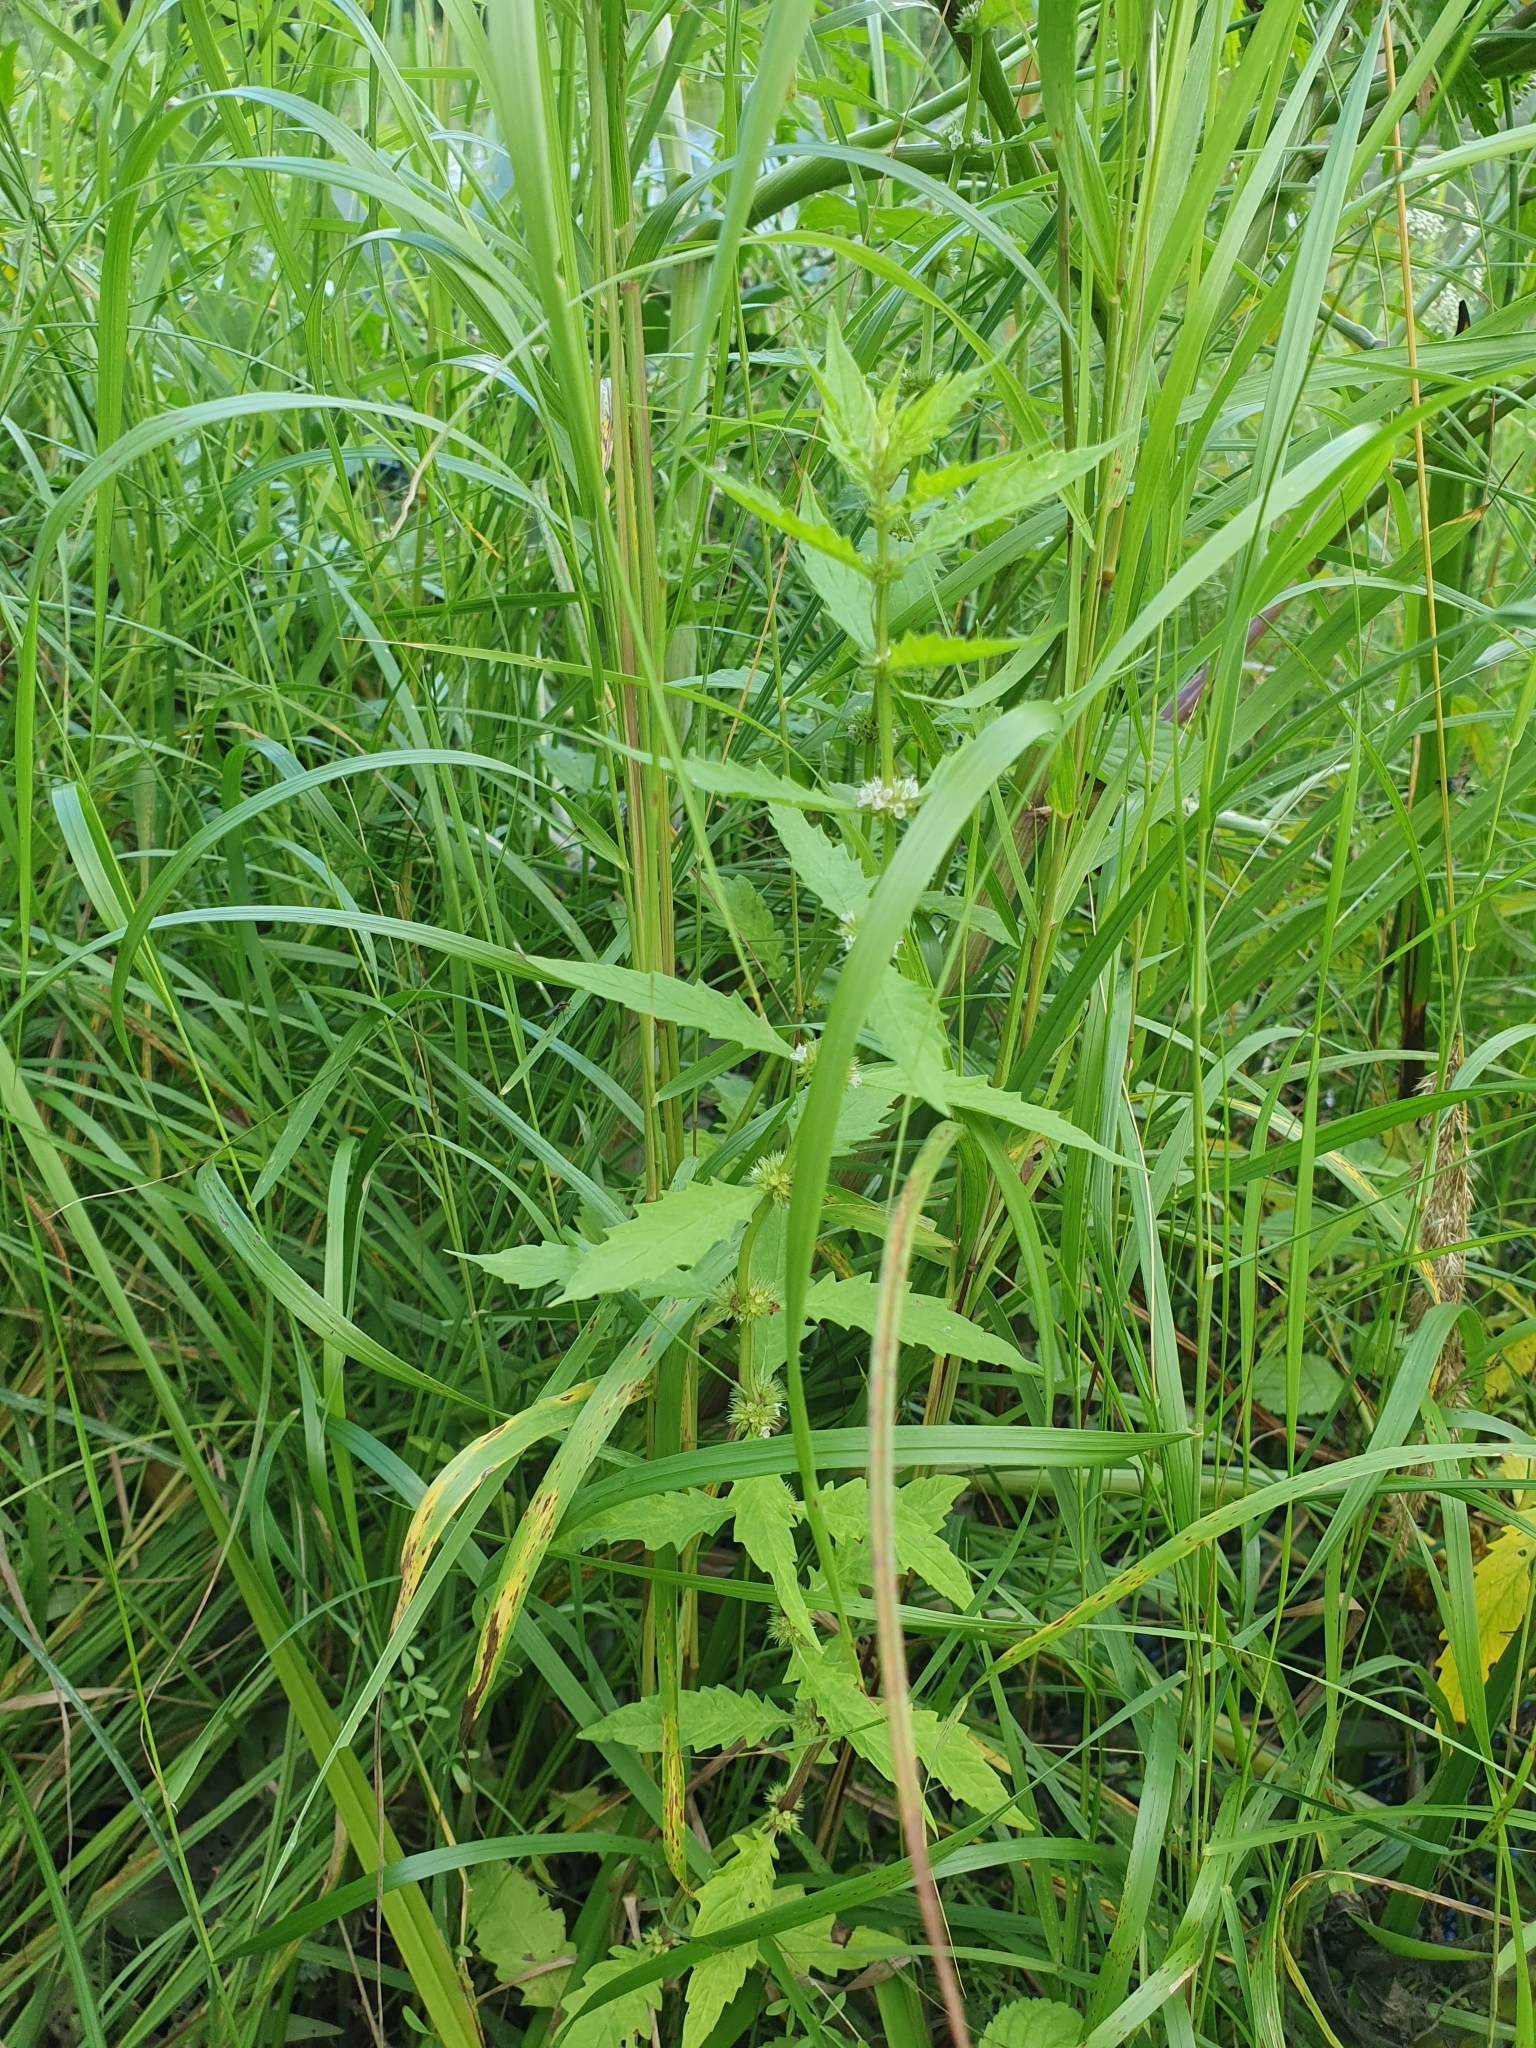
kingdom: Plantae
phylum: Tracheophyta
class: Magnoliopsida
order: Lamiales
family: Lamiaceae
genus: Lycopus
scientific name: Lycopus europaeus
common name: European bugleweed
